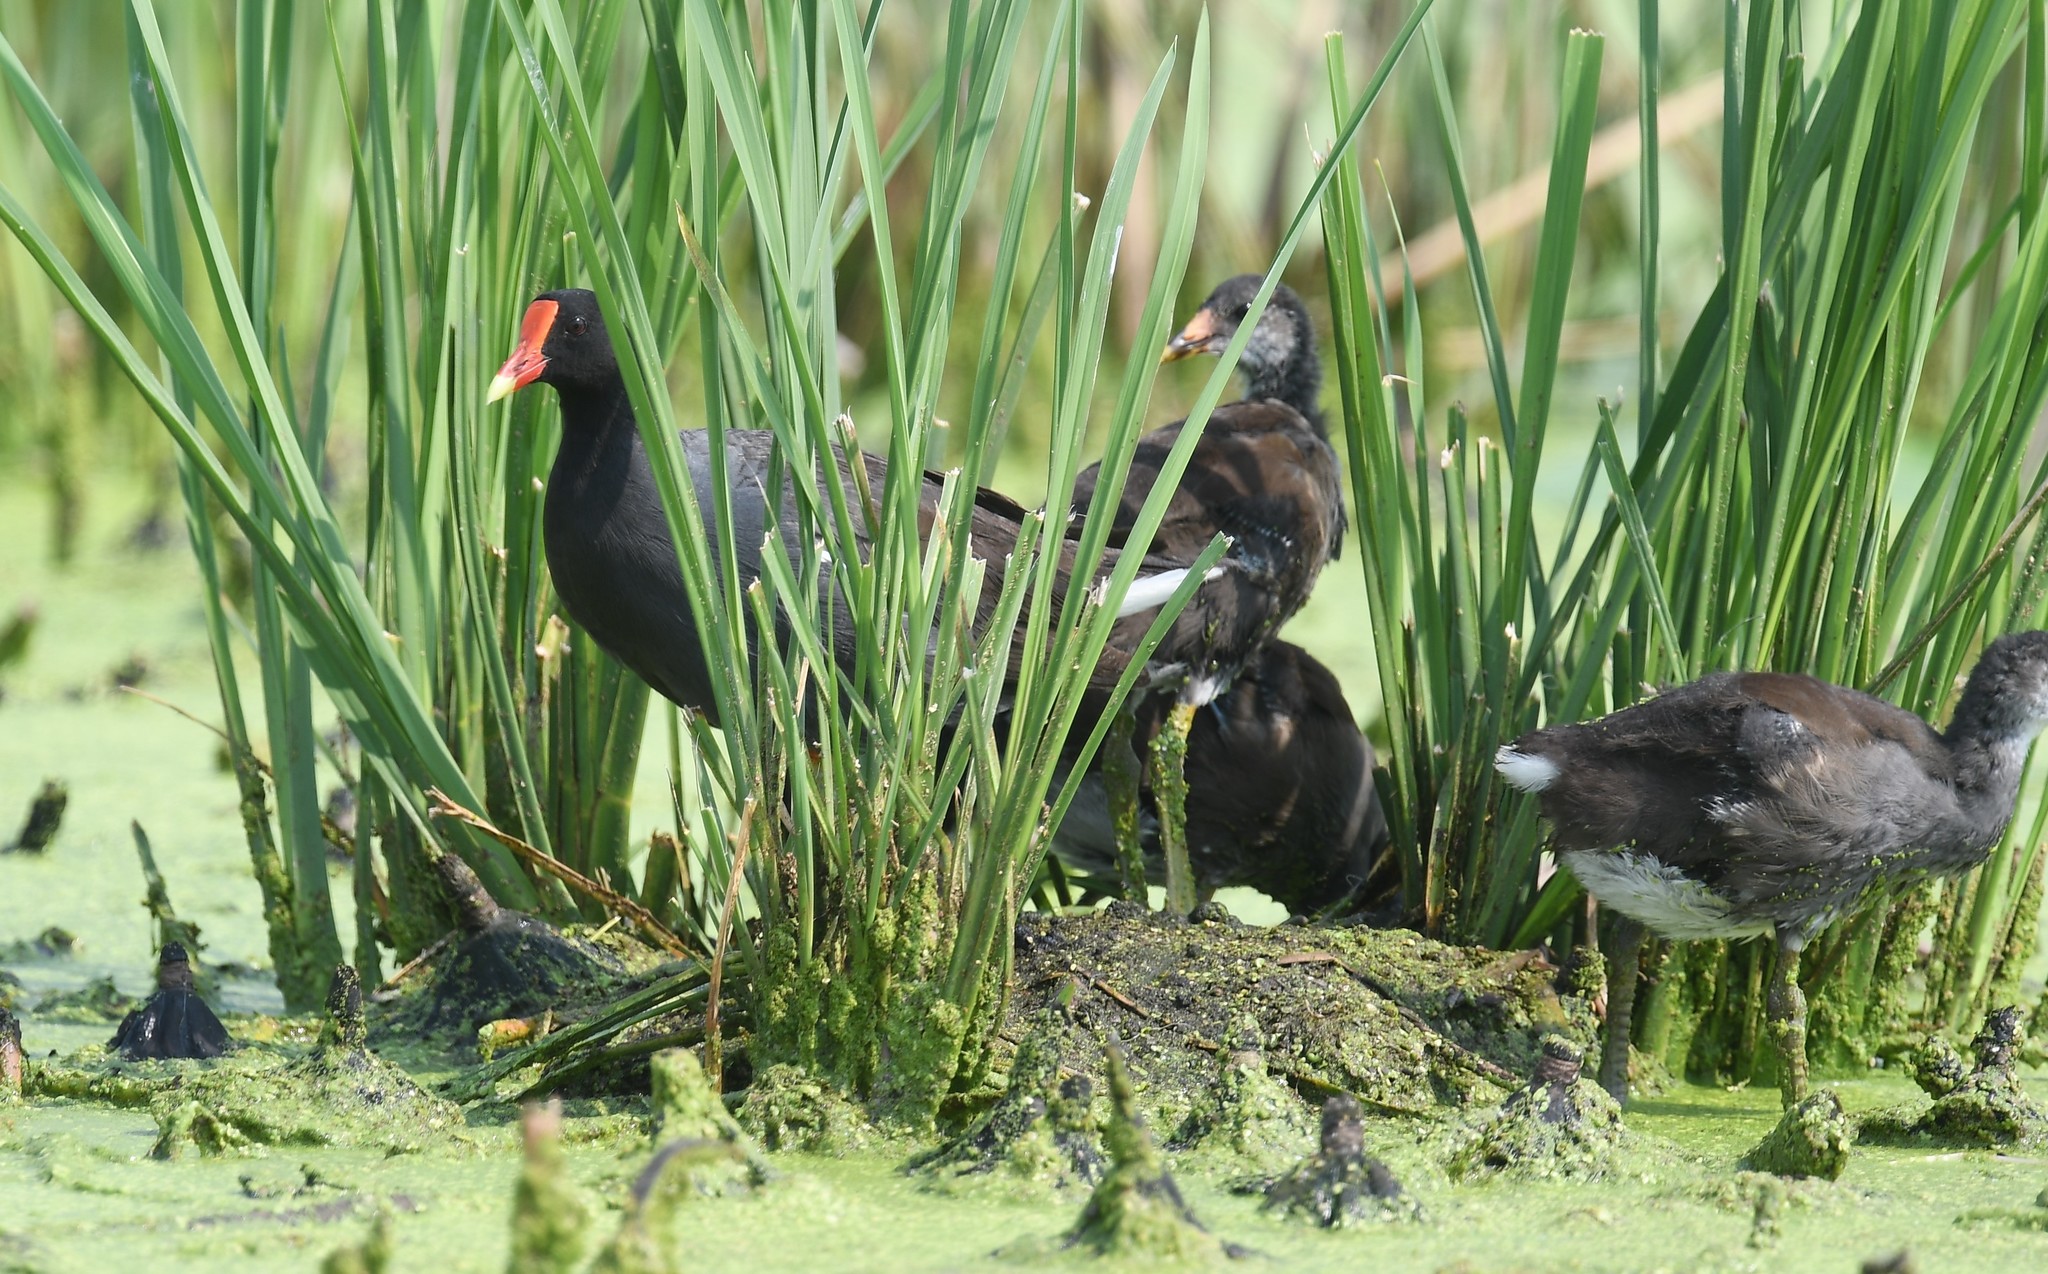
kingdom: Animalia
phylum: Chordata
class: Aves
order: Gruiformes
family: Rallidae
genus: Gallinula
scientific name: Gallinula chloropus
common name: Common moorhen
